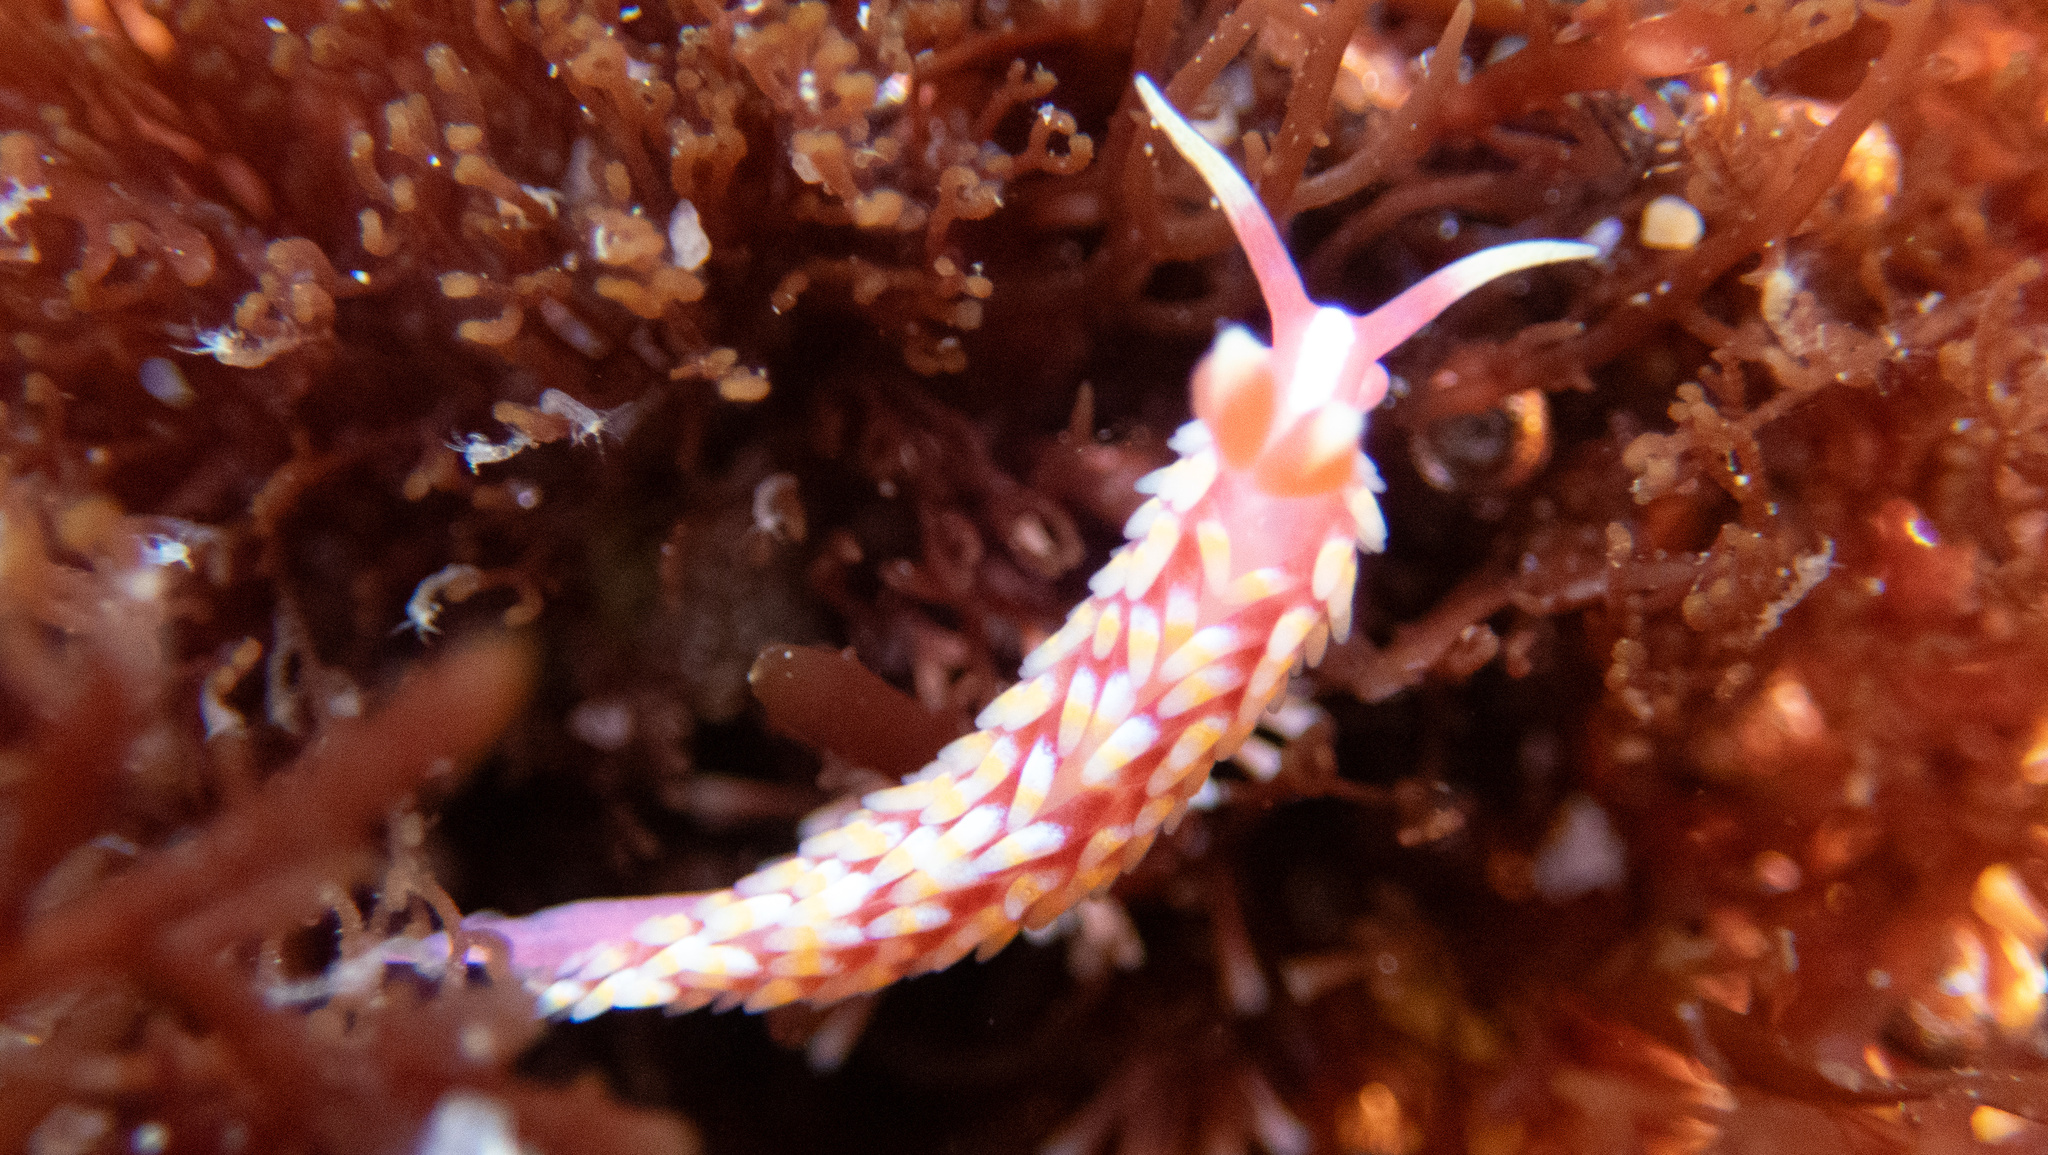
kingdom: Animalia
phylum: Mollusca
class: Gastropoda
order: Nudibranchia
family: Babakinidae
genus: Babakina
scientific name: Babakina festiva
